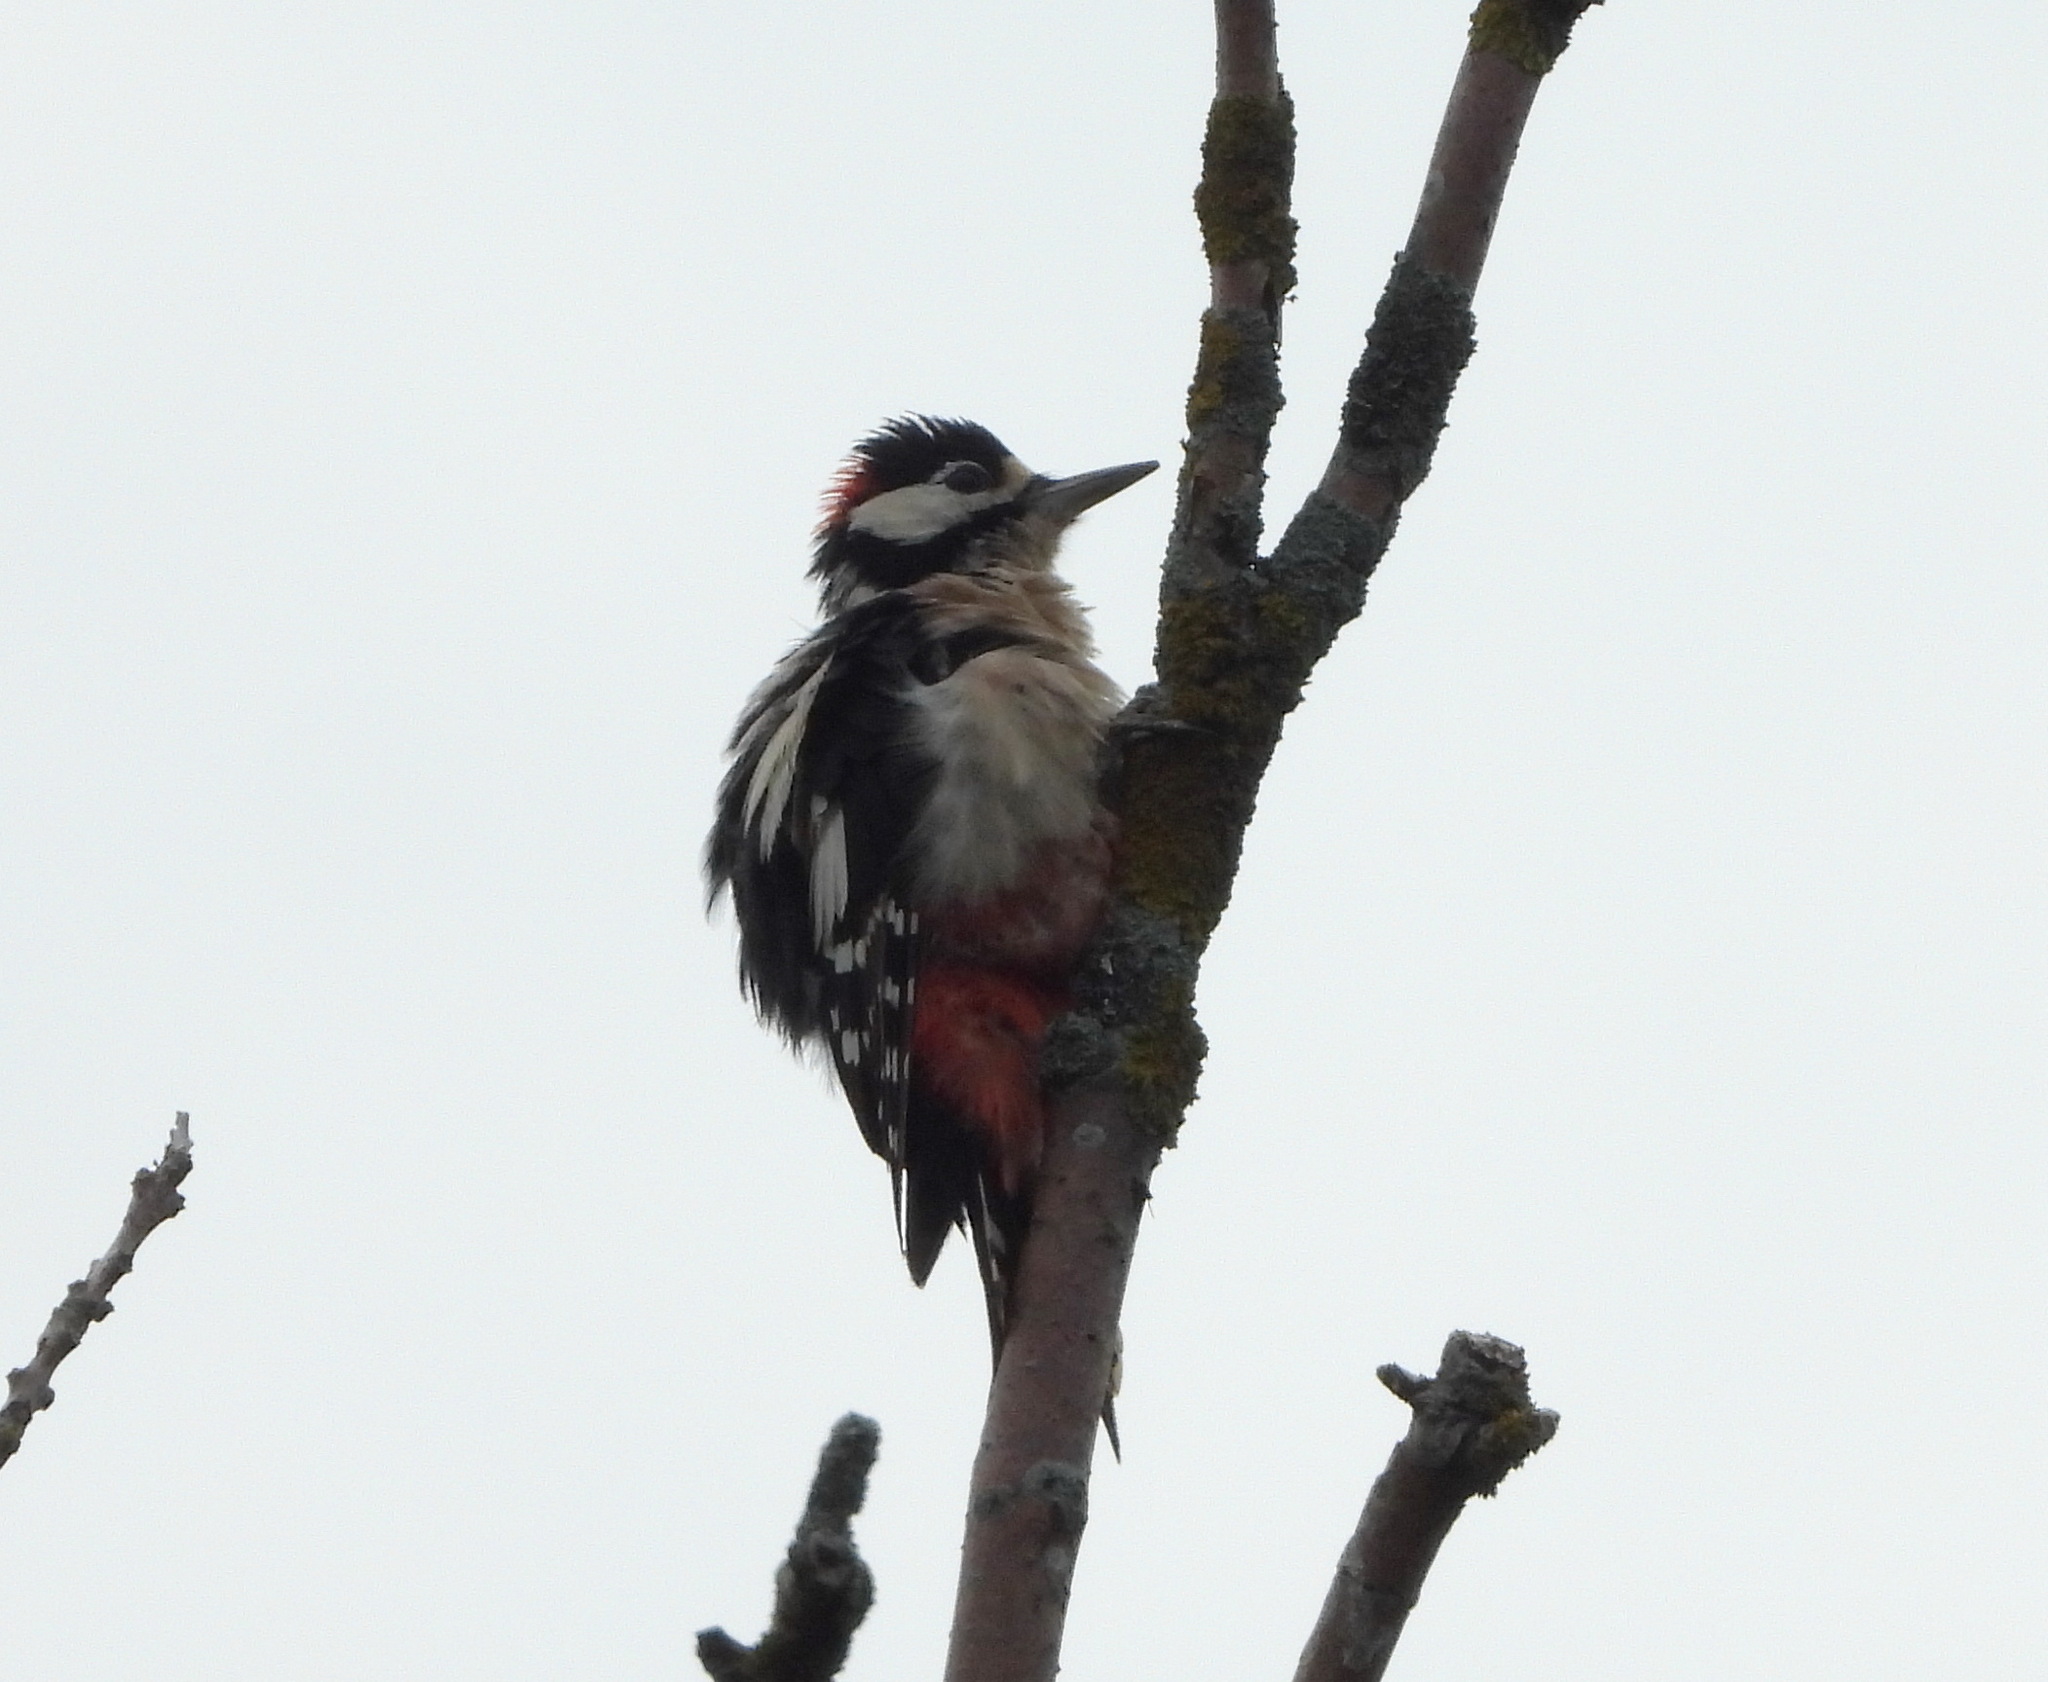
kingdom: Animalia
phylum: Chordata
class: Aves
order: Piciformes
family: Picidae
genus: Dendrocopos
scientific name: Dendrocopos major
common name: Great spotted woodpecker
